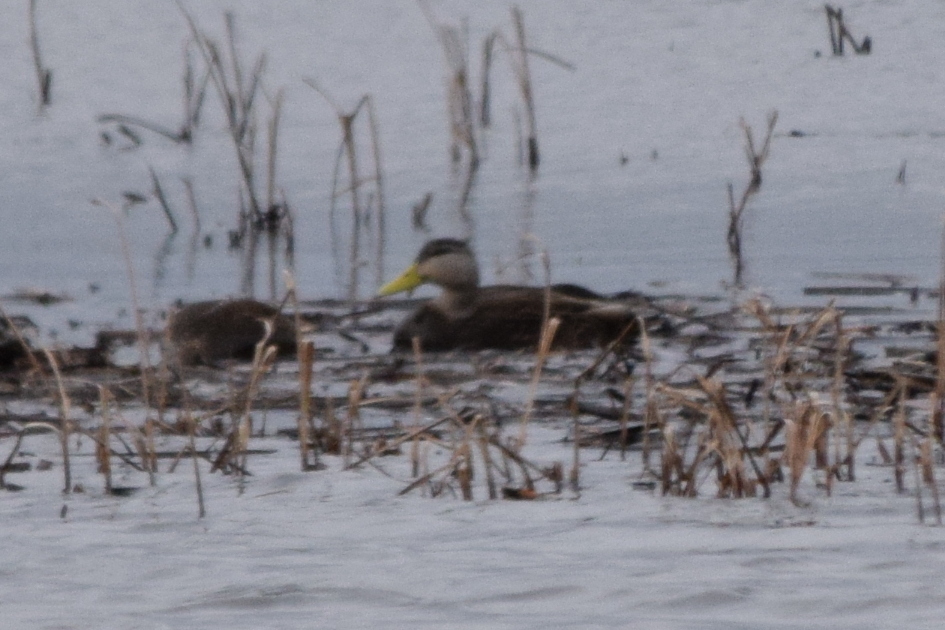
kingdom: Animalia
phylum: Chordata
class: Aves
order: Anseriformes
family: Anatidae
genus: Anas
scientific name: Anas rubripes
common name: American black duck
